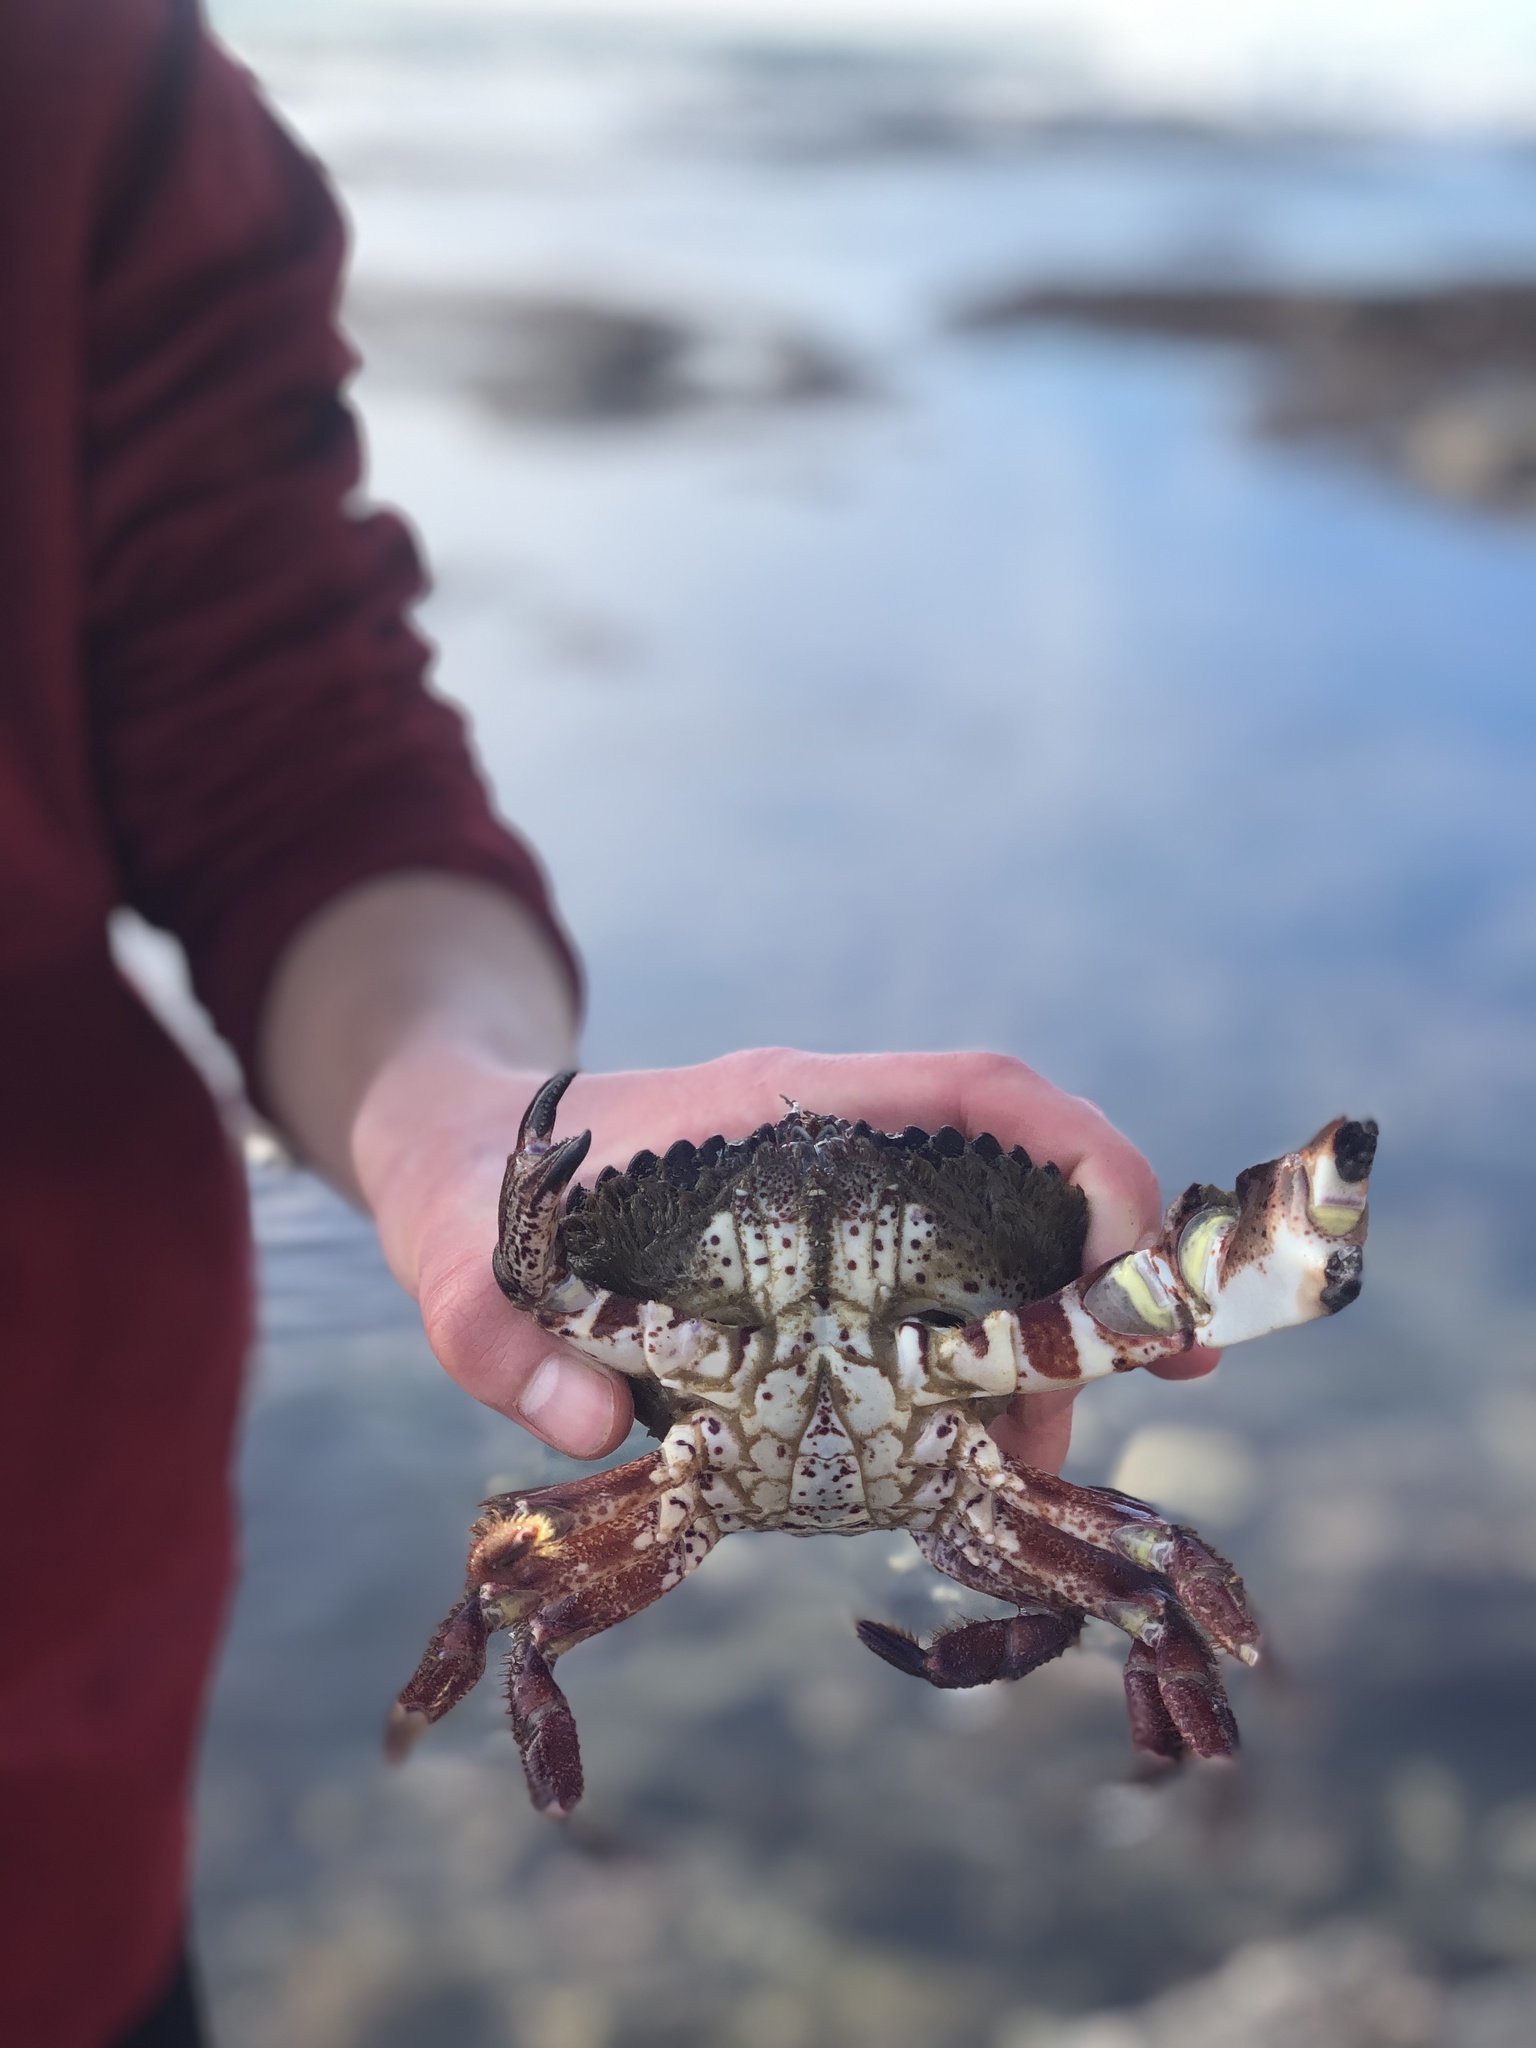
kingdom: Animalia
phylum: Arthropoda
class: Malacostraca
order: Decapoda
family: Cancridae
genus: Romaleon
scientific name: Romaleon antennarium
